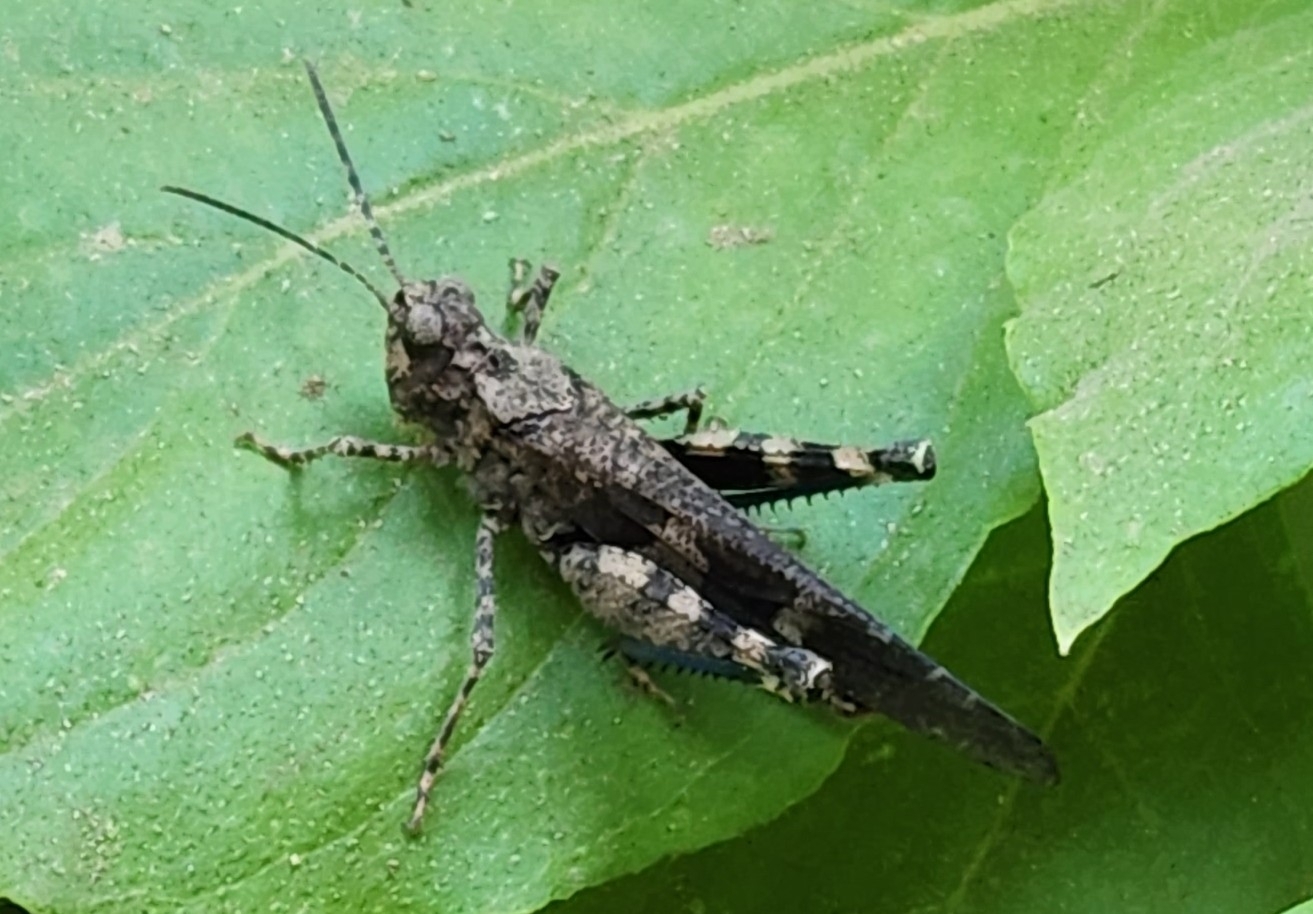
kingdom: Animalia
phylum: Arthropoda
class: Insecta
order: Orthoptera
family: Acrididae
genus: Trimerotropis
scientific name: Trimerotropis fontana
